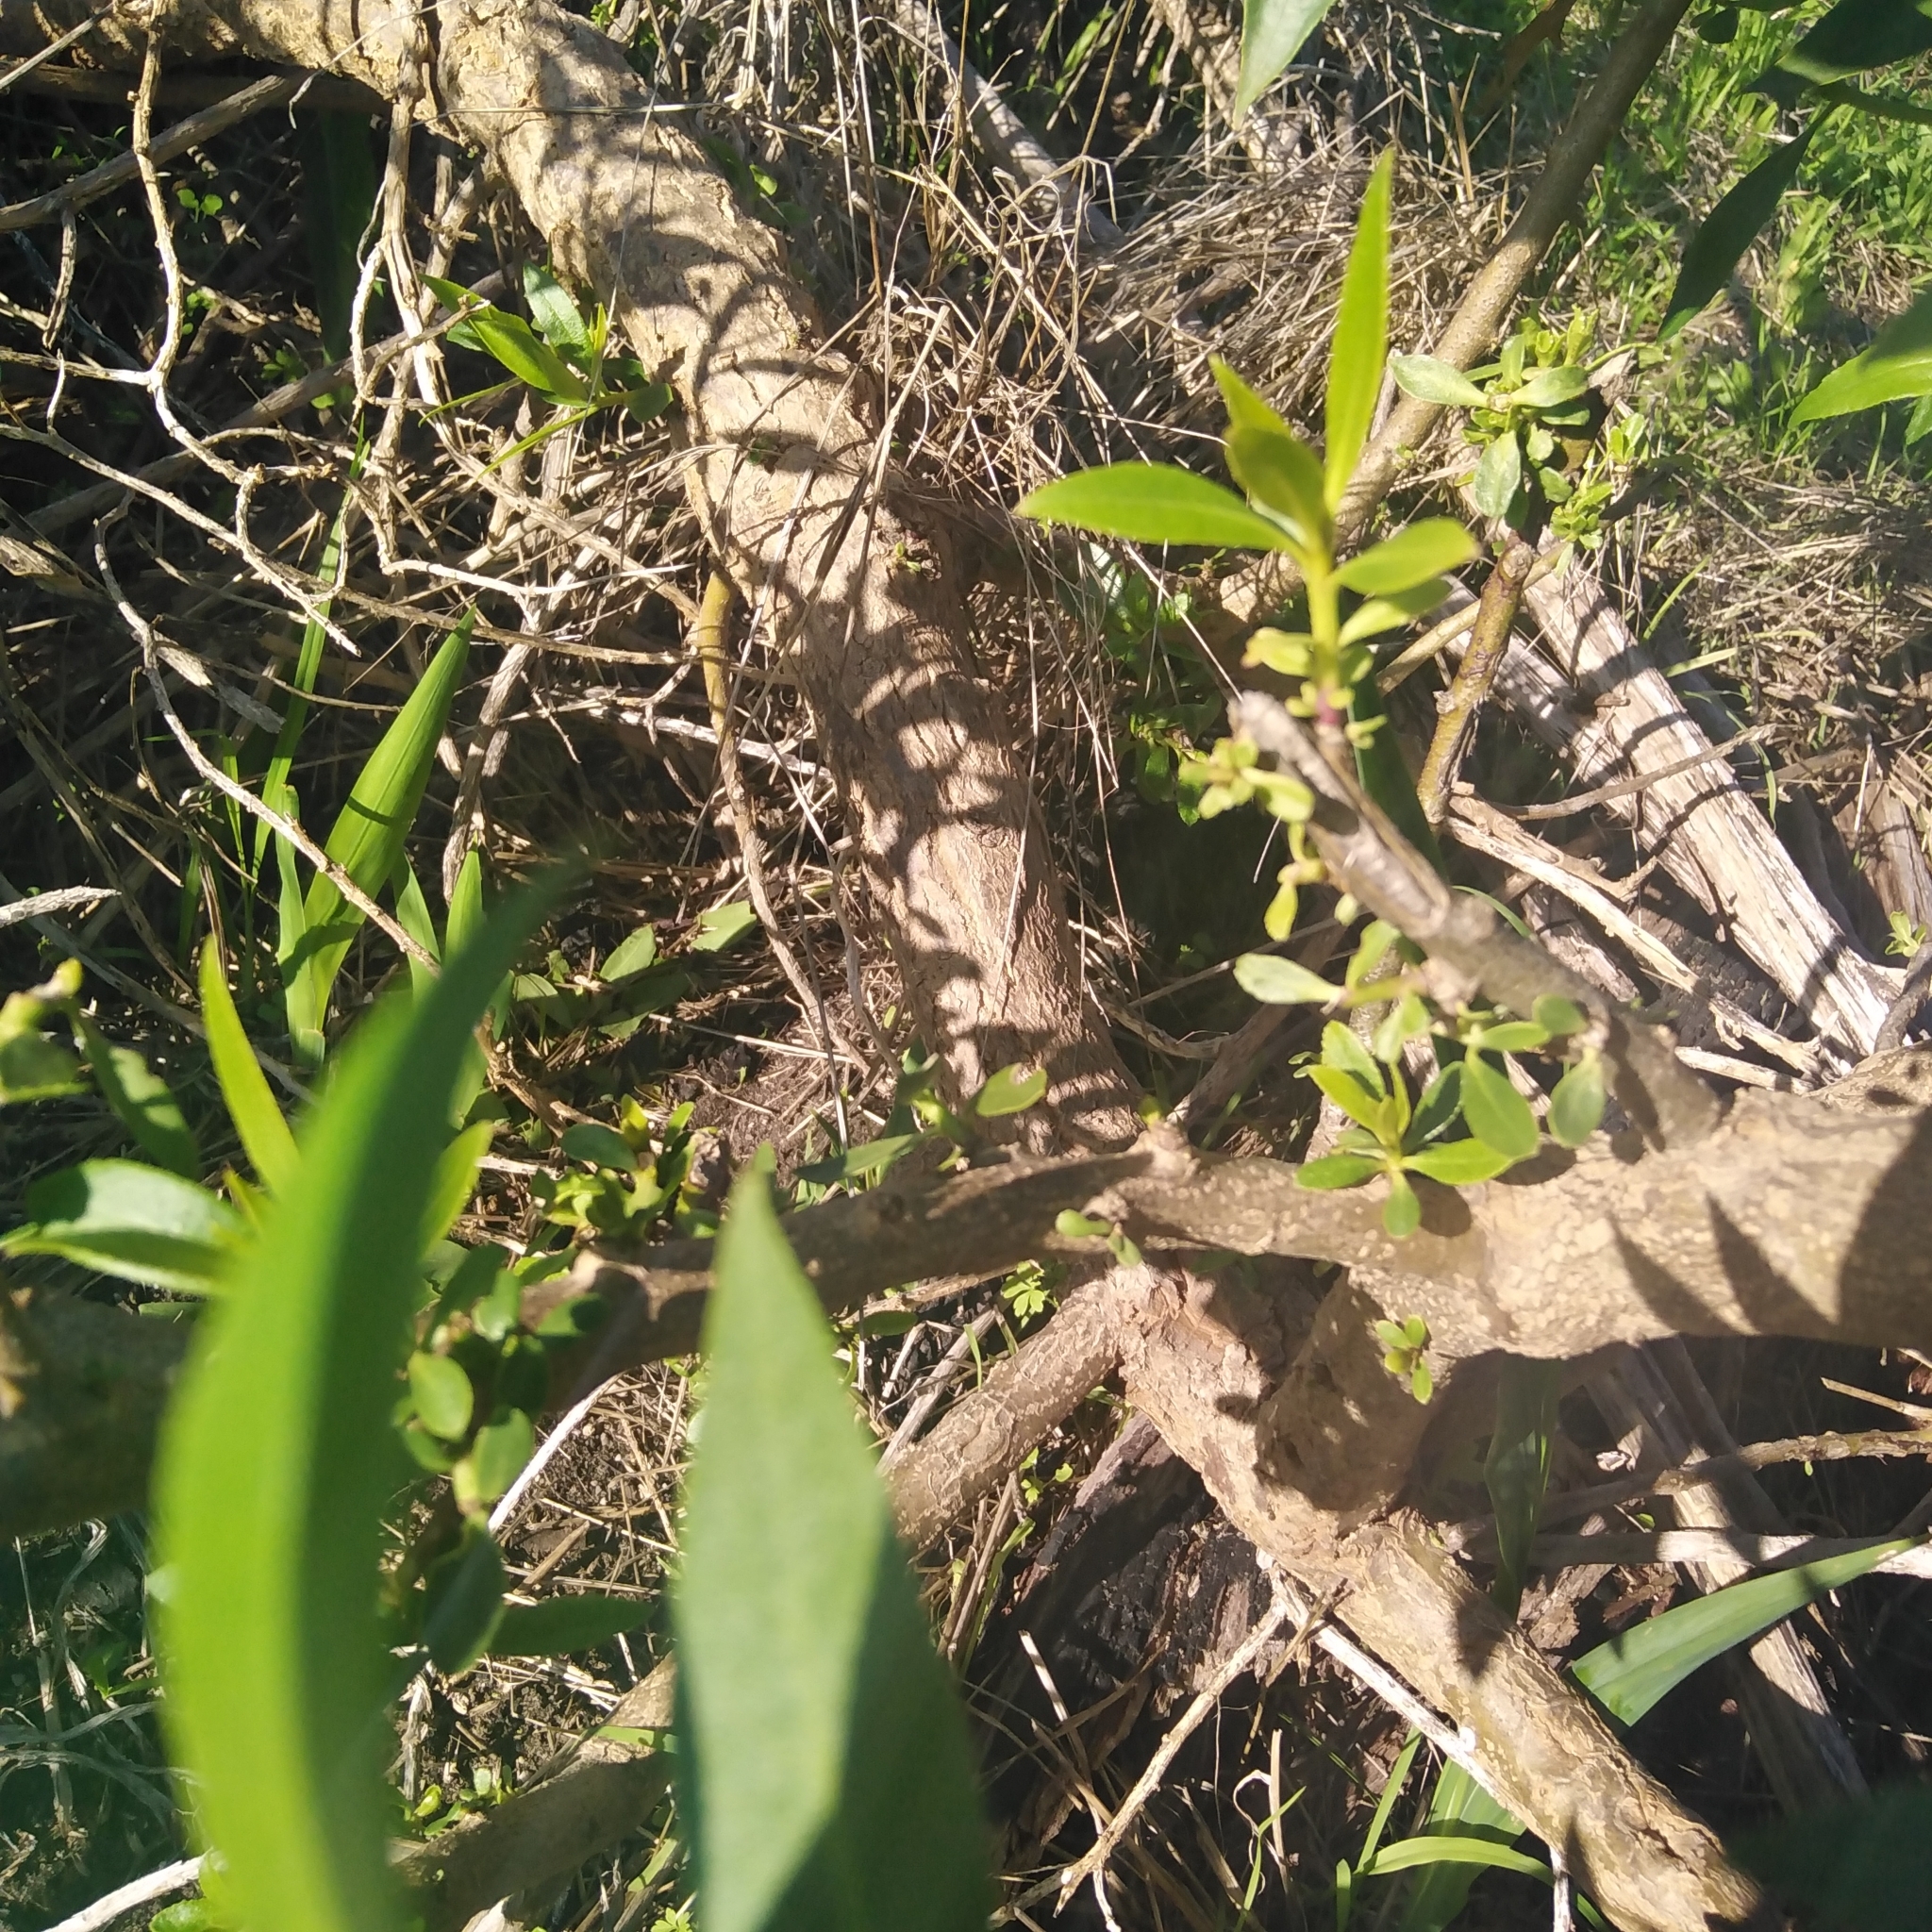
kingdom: Plantae
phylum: Tracheophyta
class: Magnoliopsida
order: Lamiales
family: Scrophulariaceae
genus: Myoporum
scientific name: Myoporum insulare
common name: Common boobialla
